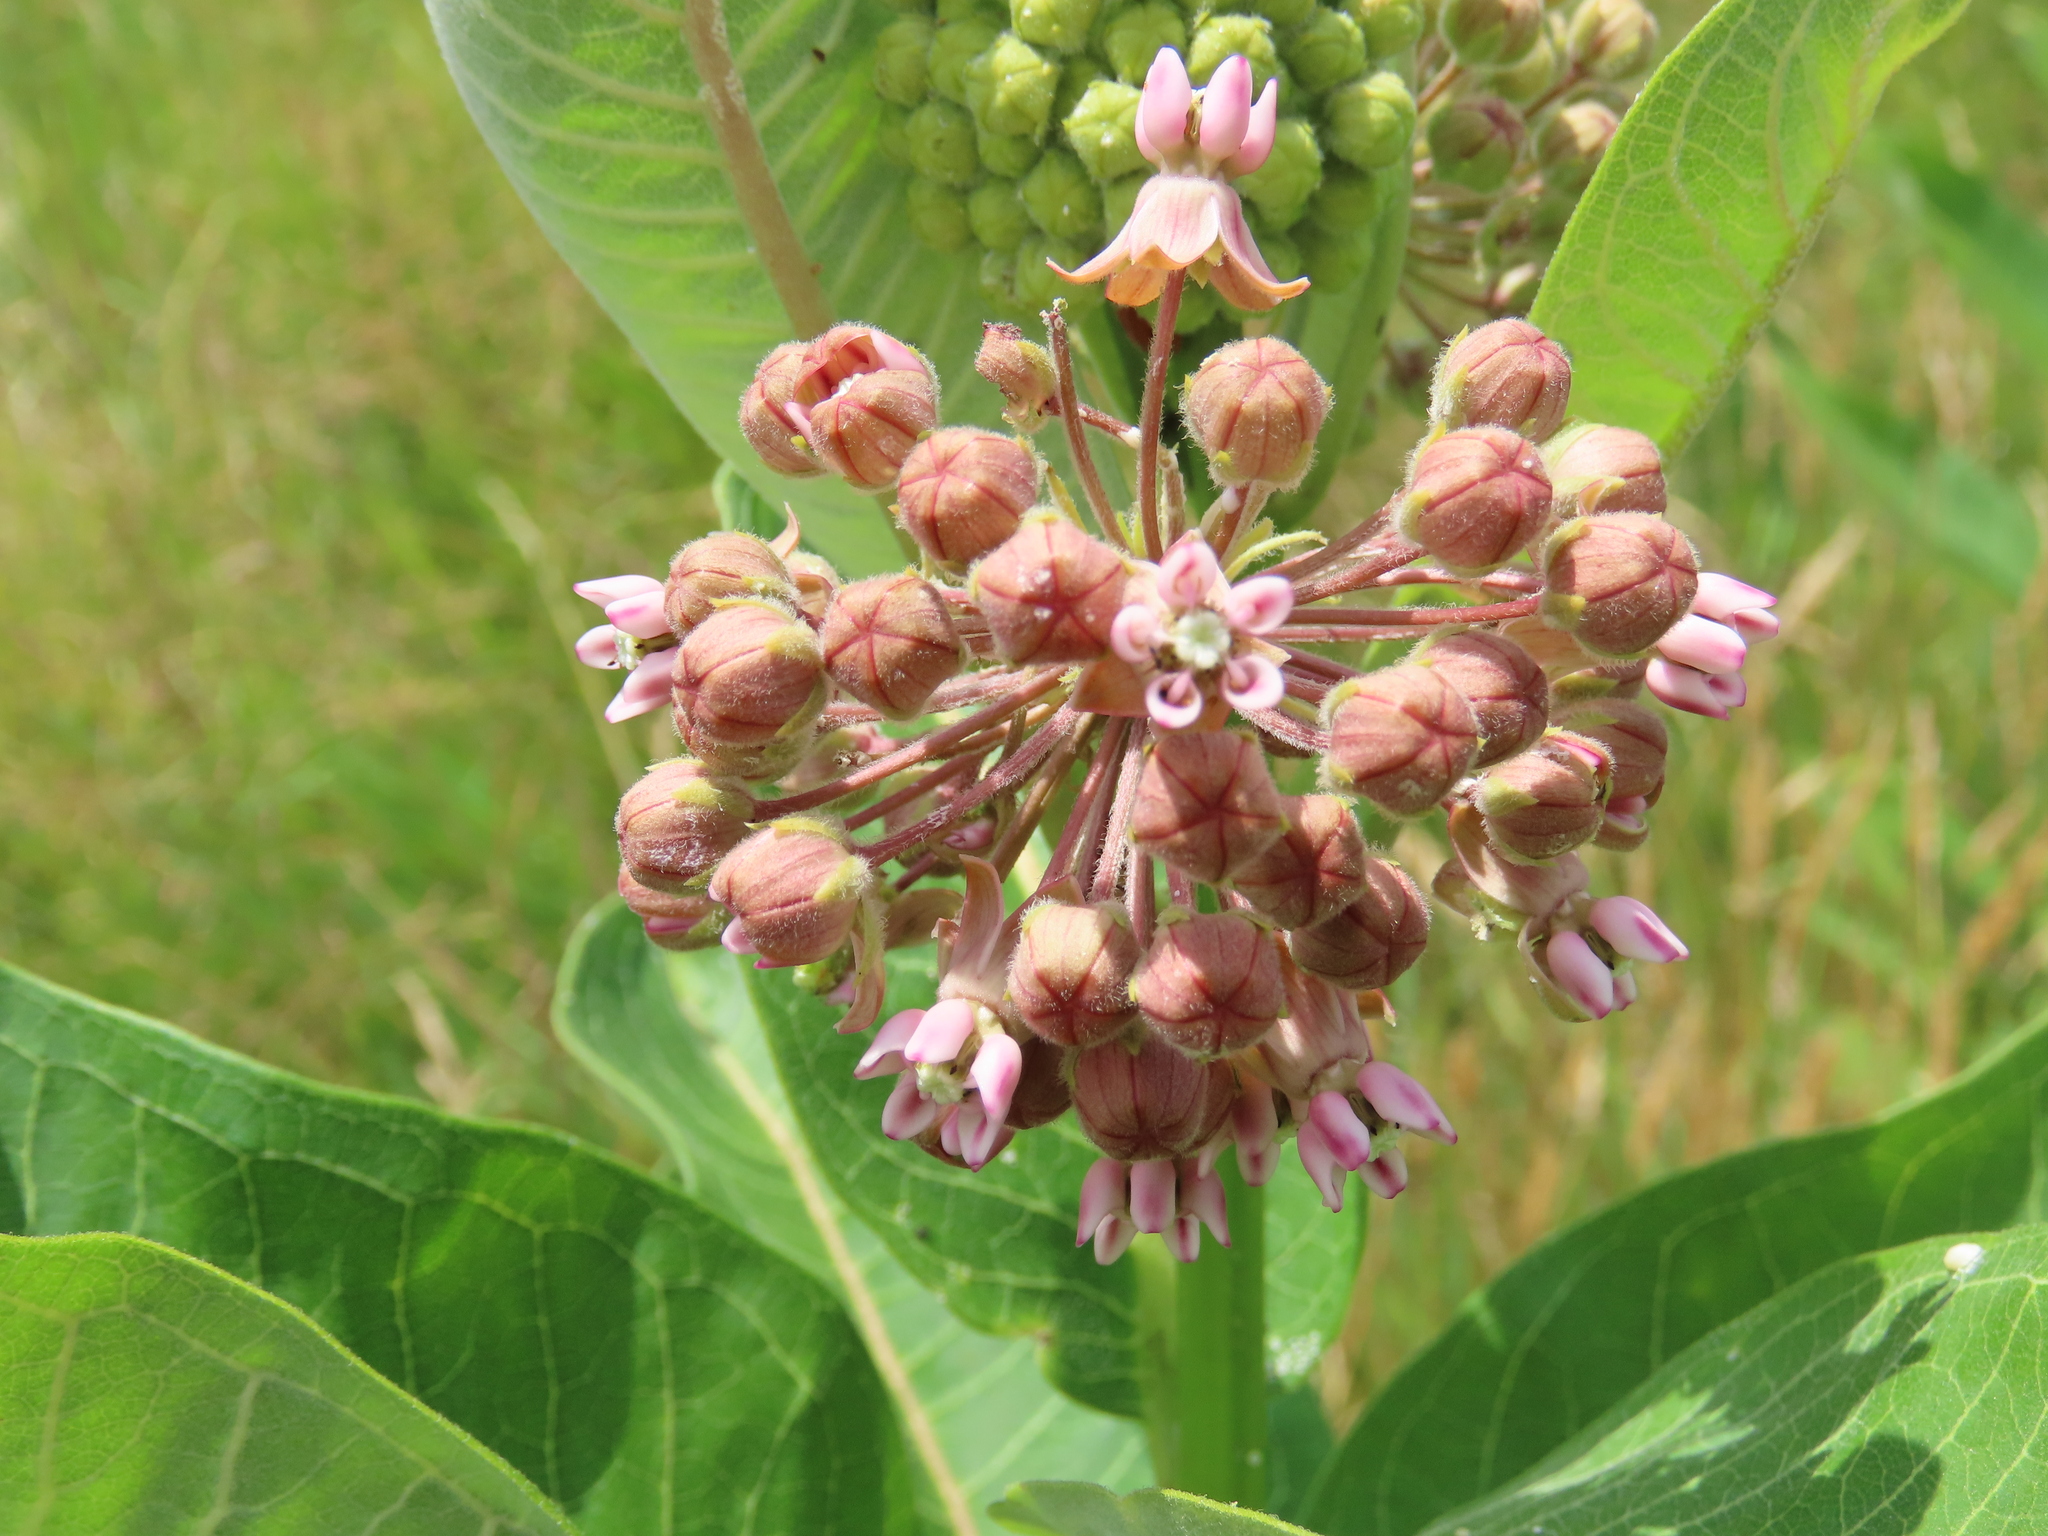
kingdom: Plantae
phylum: Tracheophyta
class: Magnoliopsida
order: Gentianales
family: Apocynaceae
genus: Asclepias
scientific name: Asclepias syriaca
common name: Common milkweed
